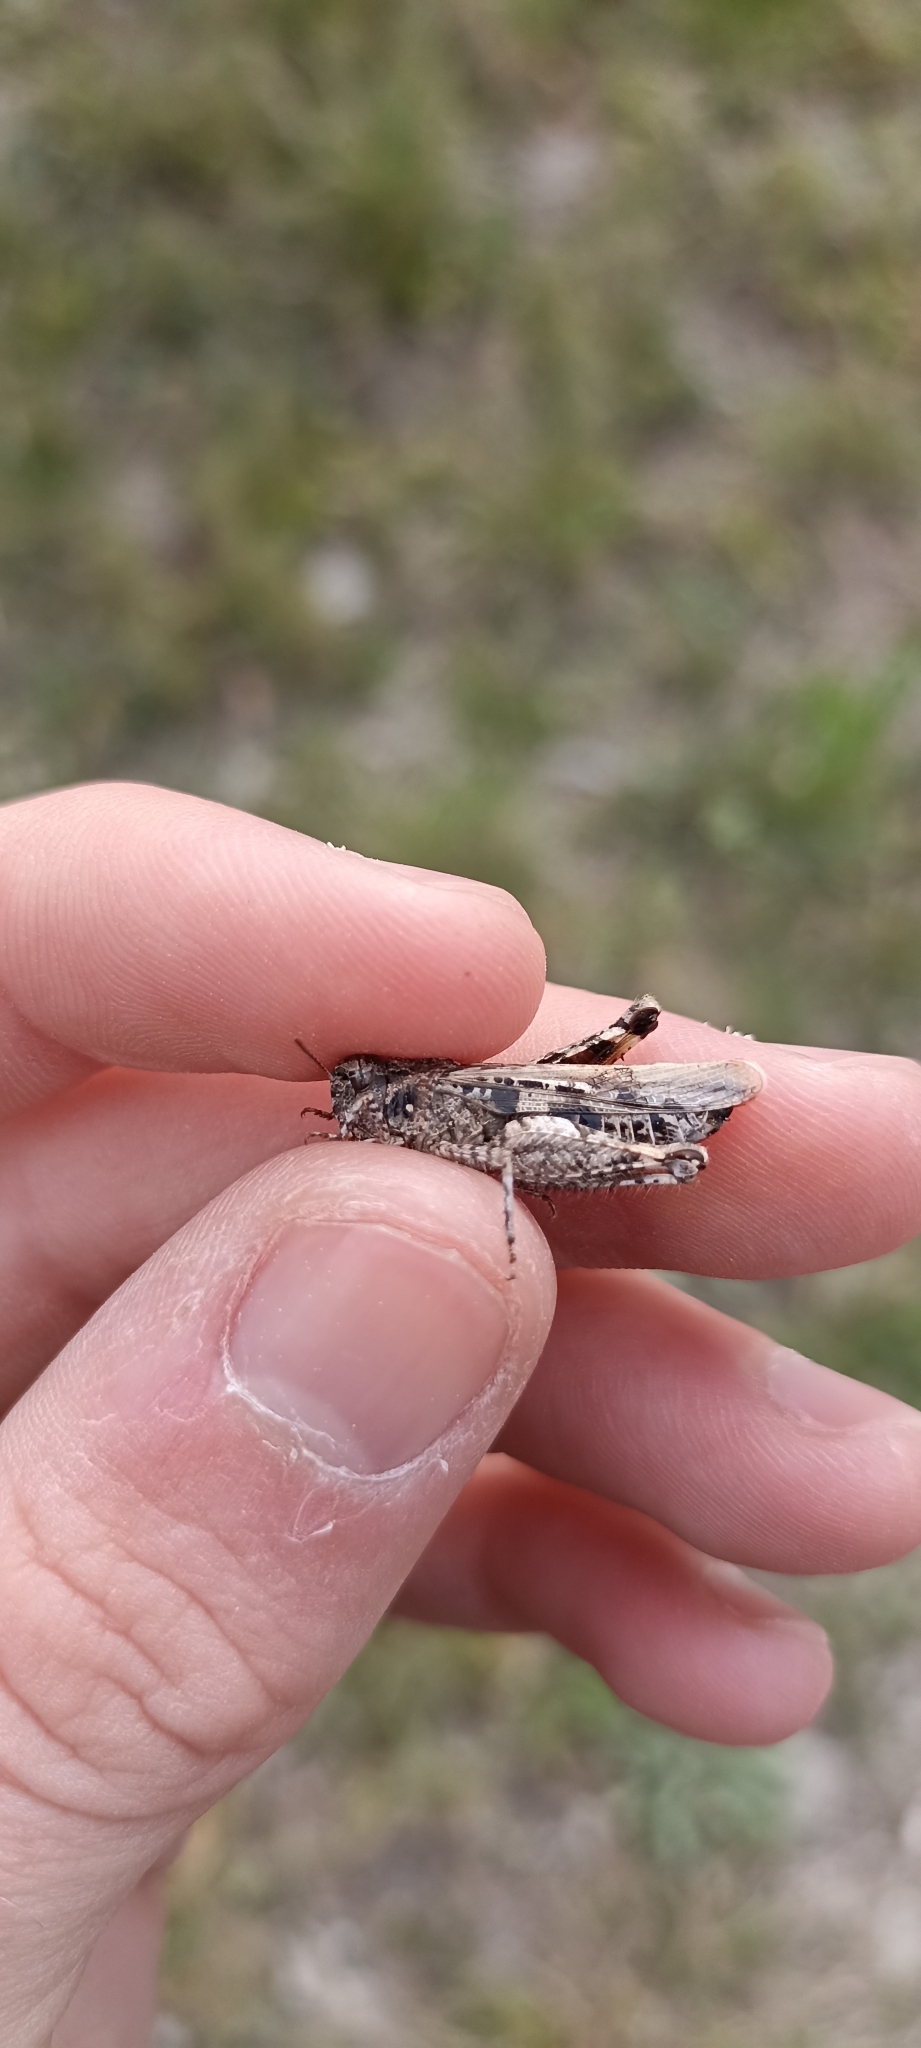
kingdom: Animalia
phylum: Arthropoda
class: Insecta
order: Orthoptera
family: Acrididae
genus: Acrotylus
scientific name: Acrotylus insubricus
